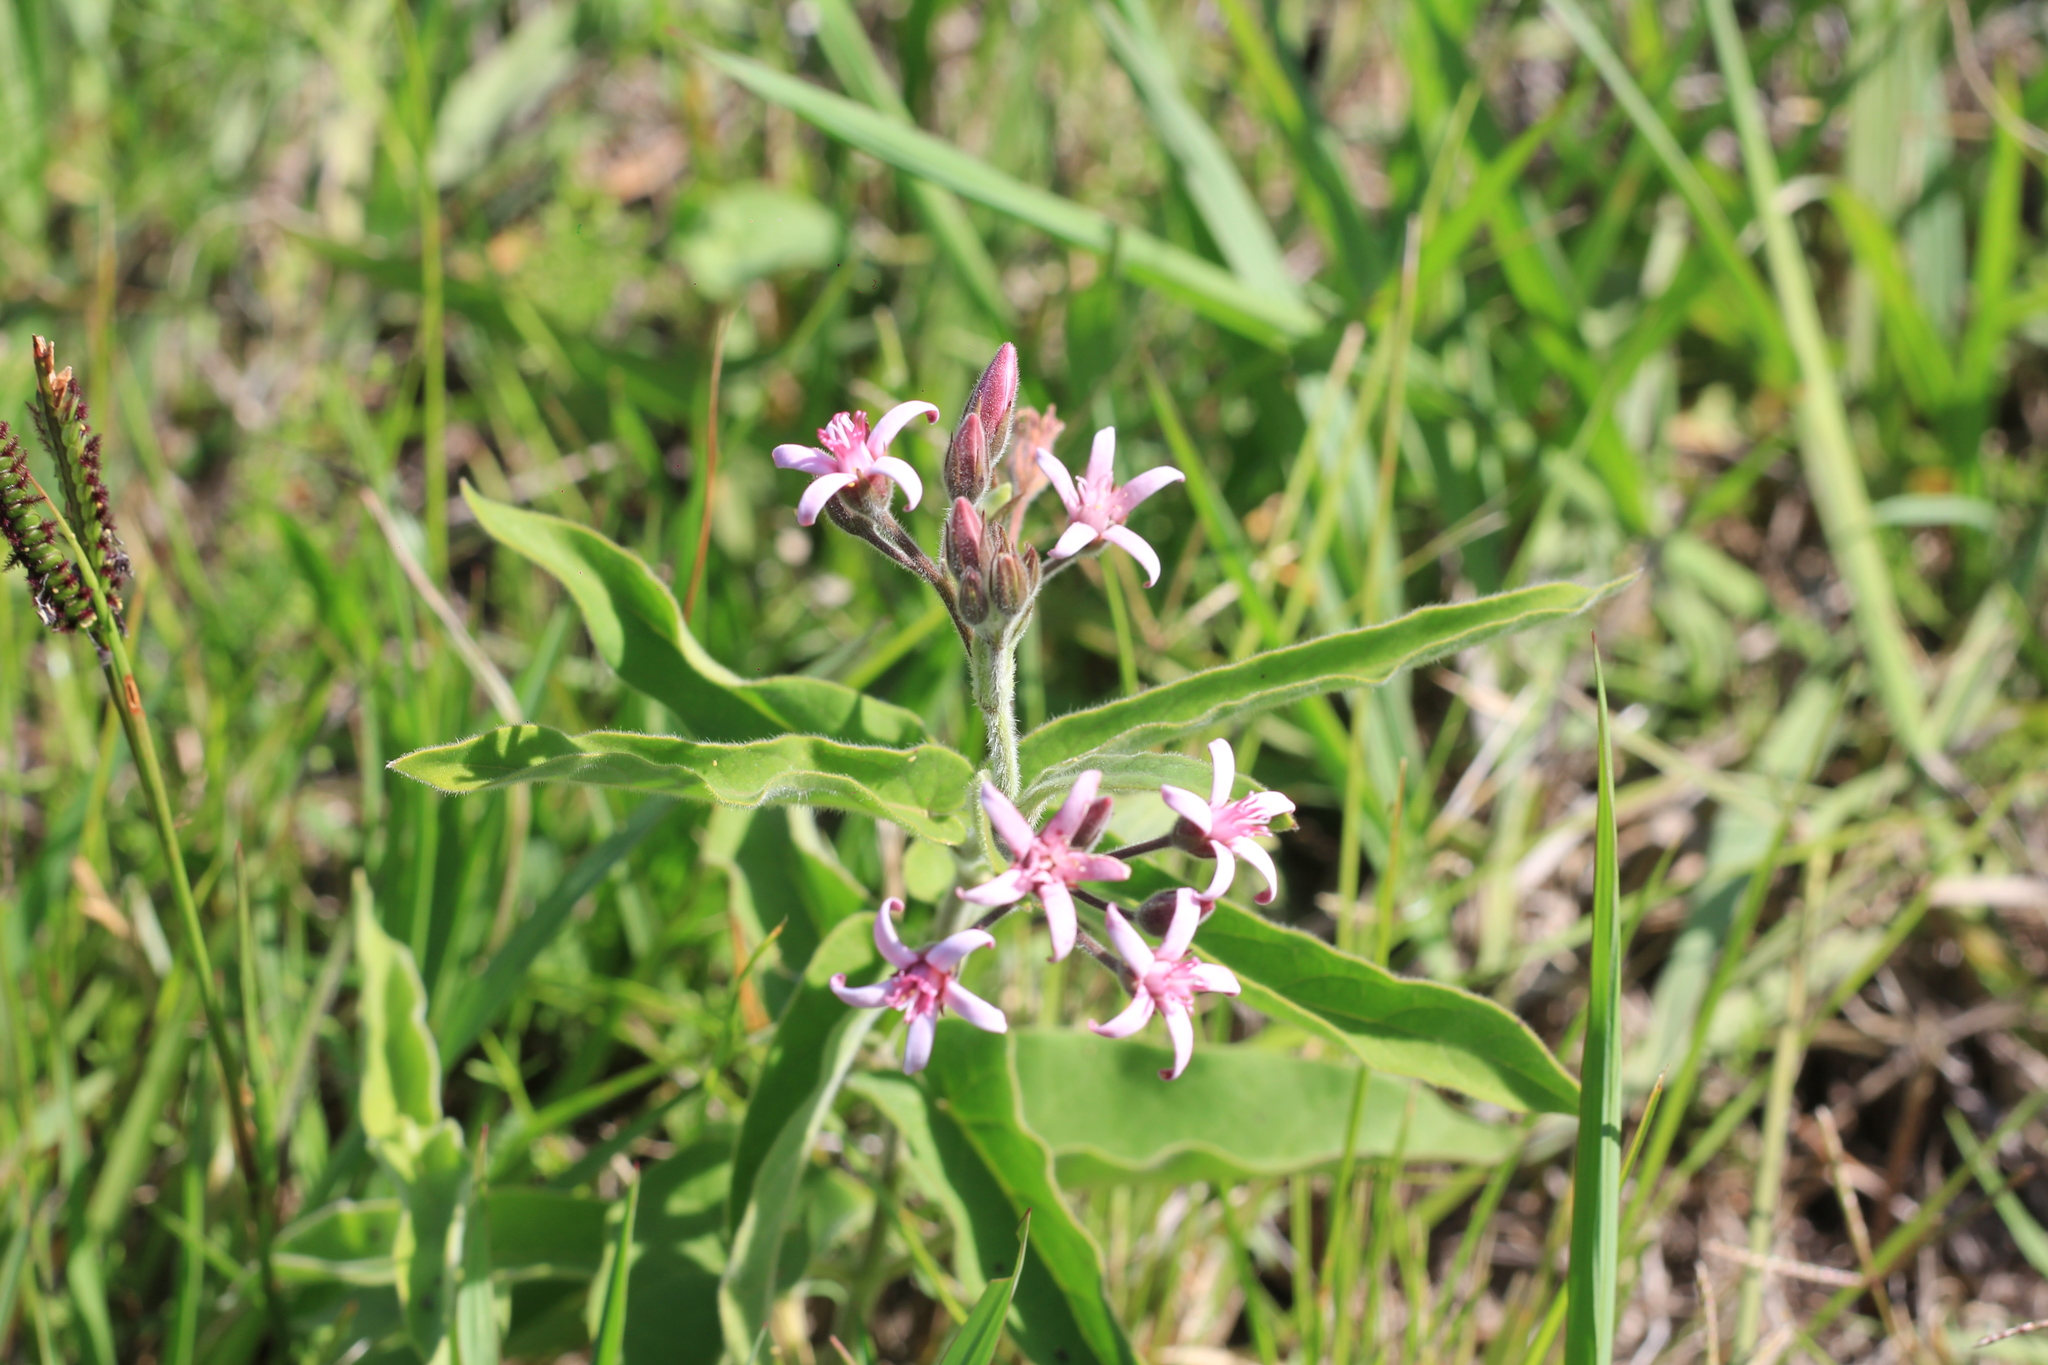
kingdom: Plantae
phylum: Tracheophyta
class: Magnoliopsida
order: Gentianales
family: Apocynaceae
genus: Oxypetalum
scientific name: Oxypetalum solanoides
